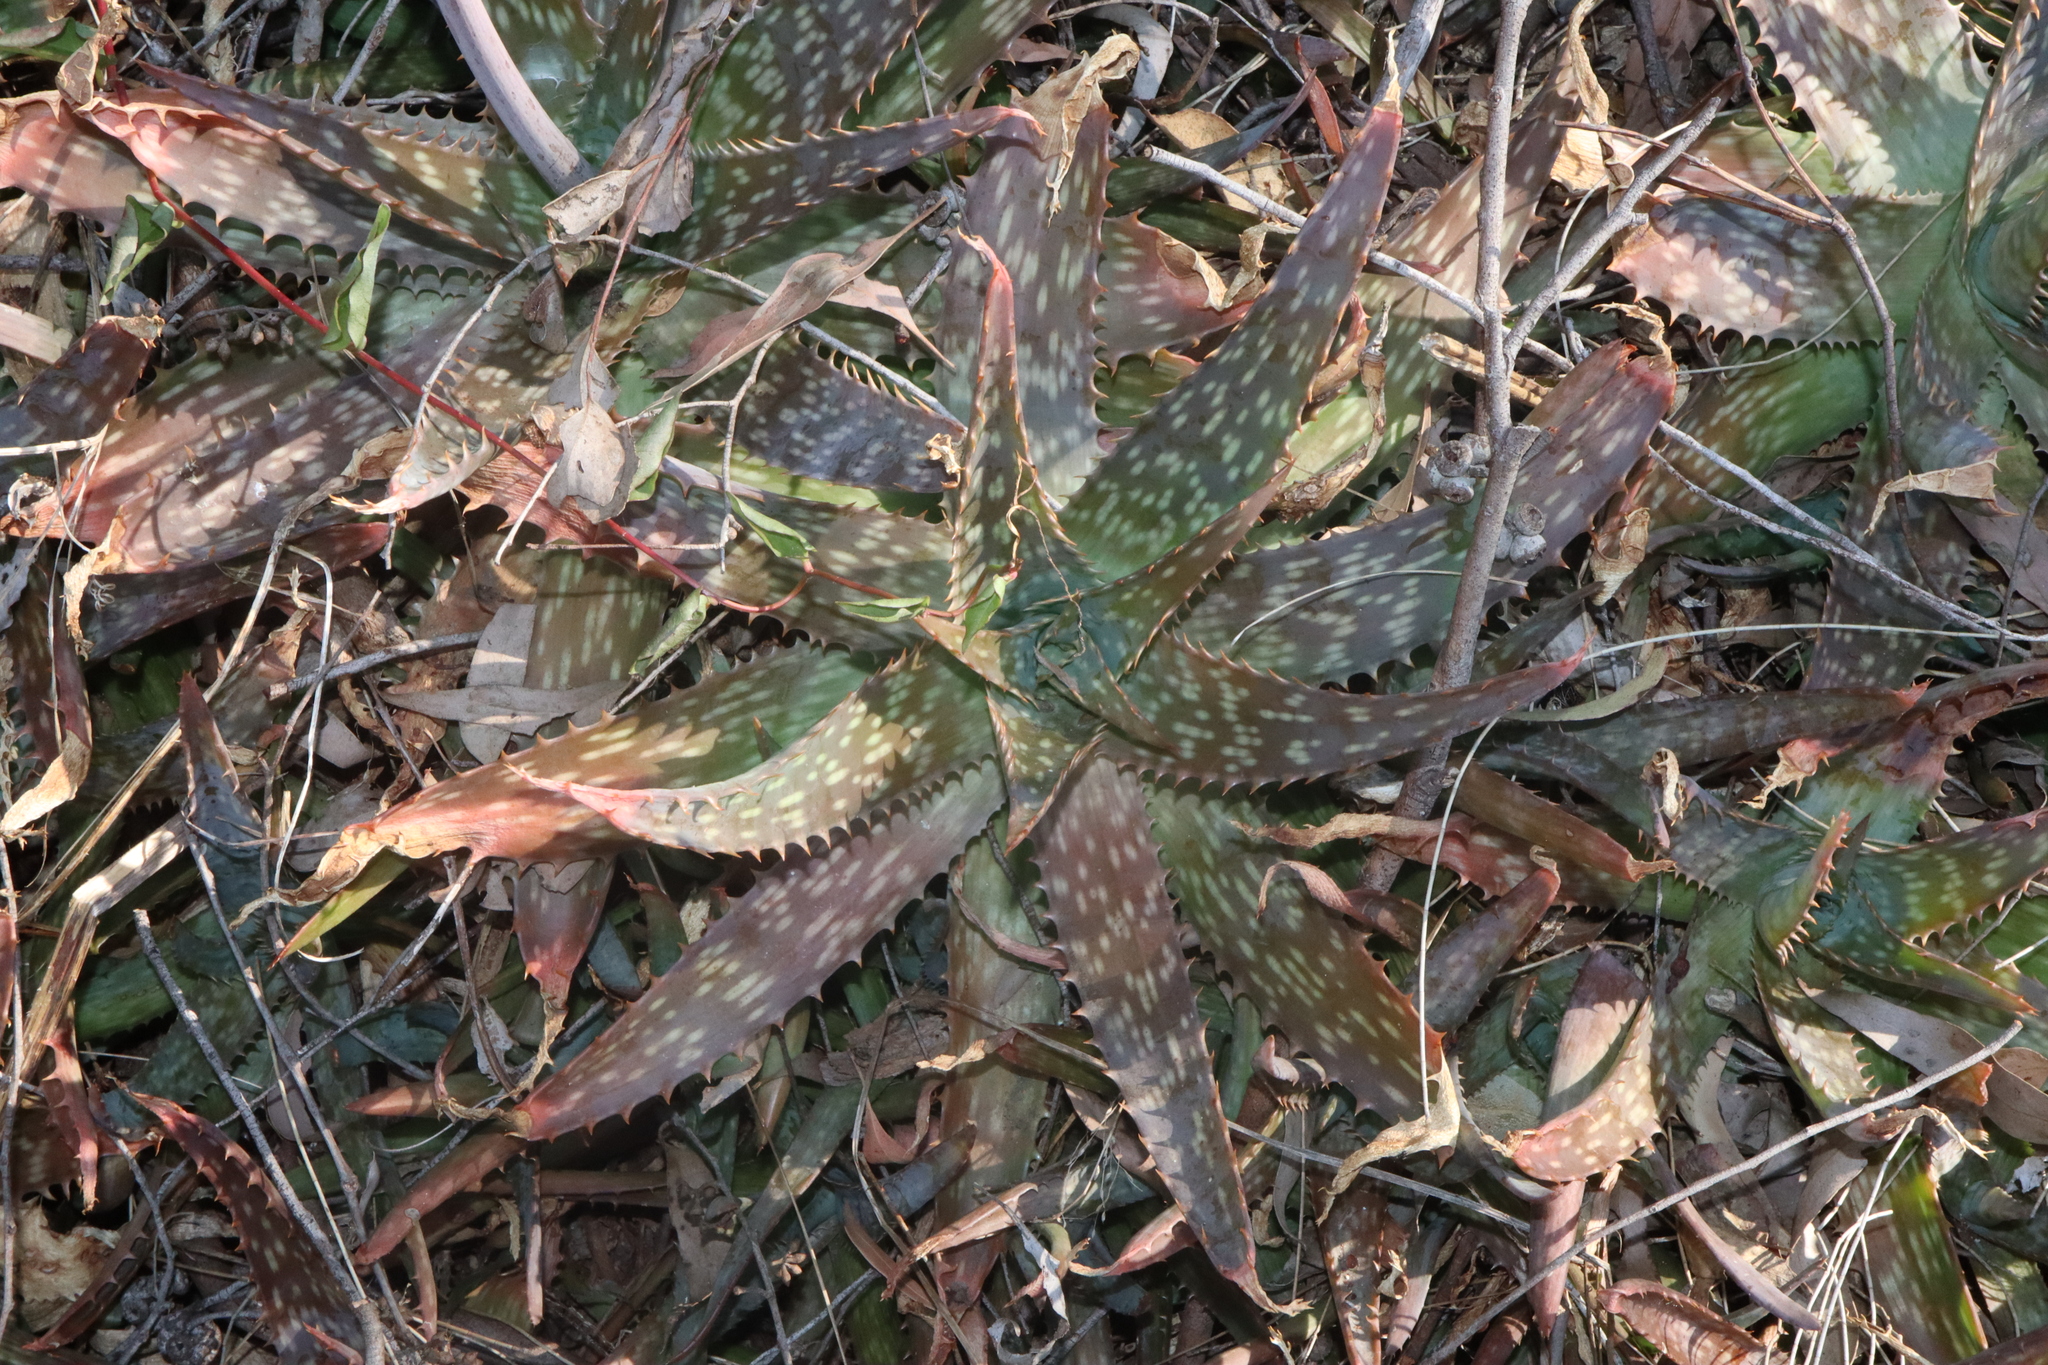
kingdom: Plantae
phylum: Tracheophyta
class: Liliopsida
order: Asparagales
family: Asphodelaceae
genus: Aloe
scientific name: Aloe maculata
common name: Broadleaf aloe
